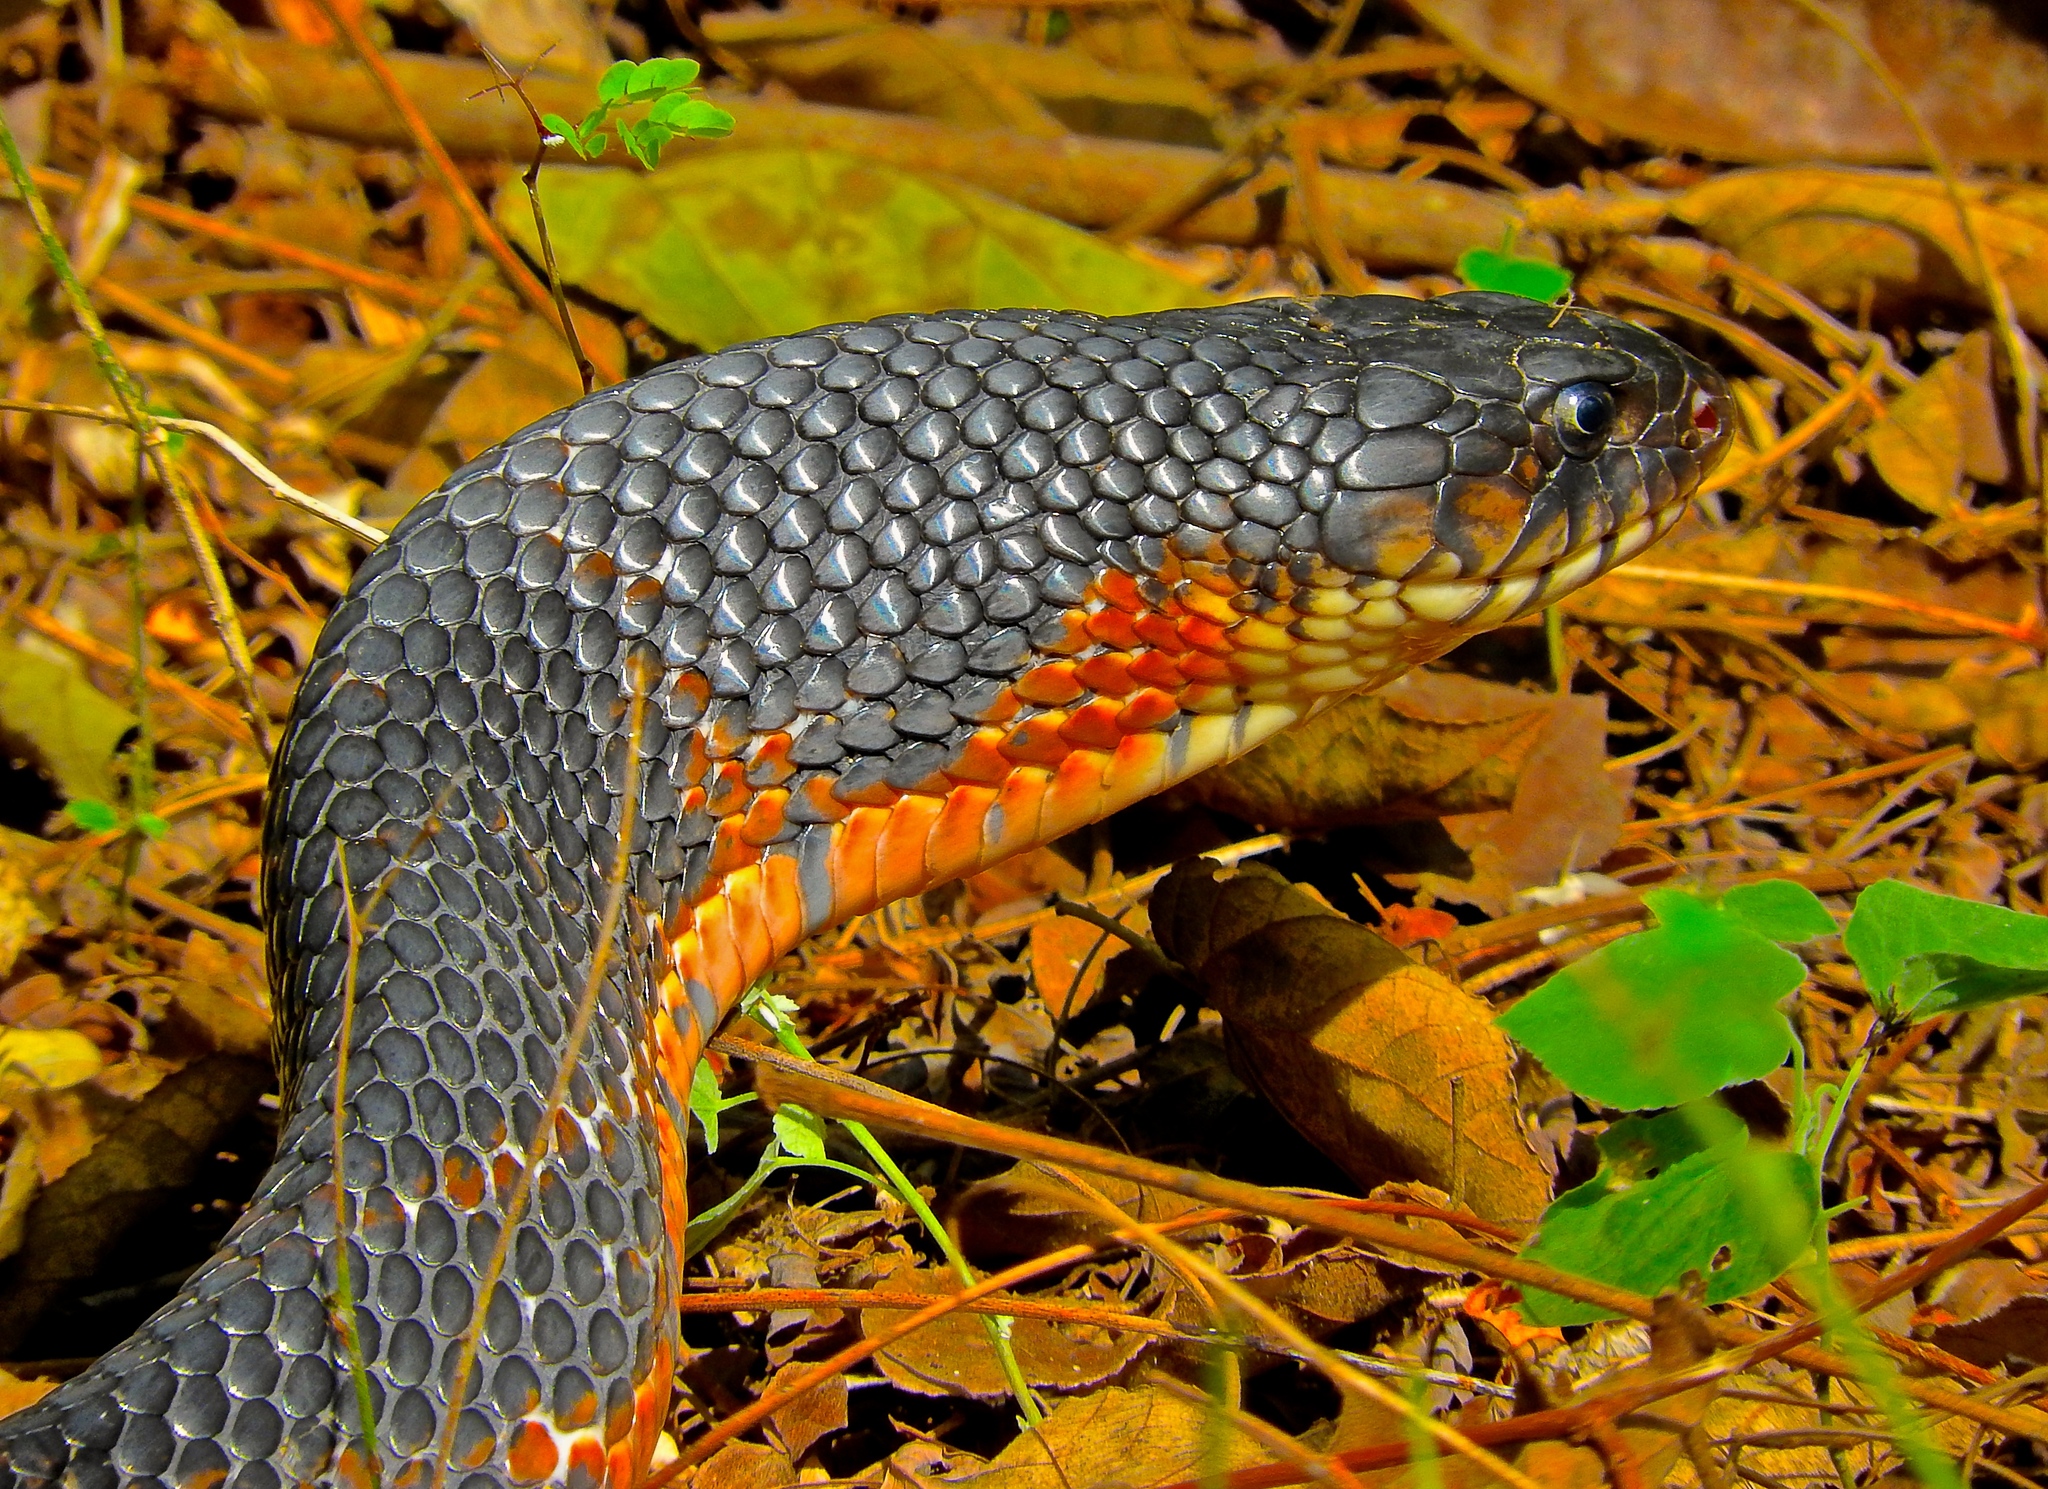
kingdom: Animalia
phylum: Chordata
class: Squamata
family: Colubridae
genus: Drymarchon
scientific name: Drymarchon melanurus
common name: Central american indigo snake
